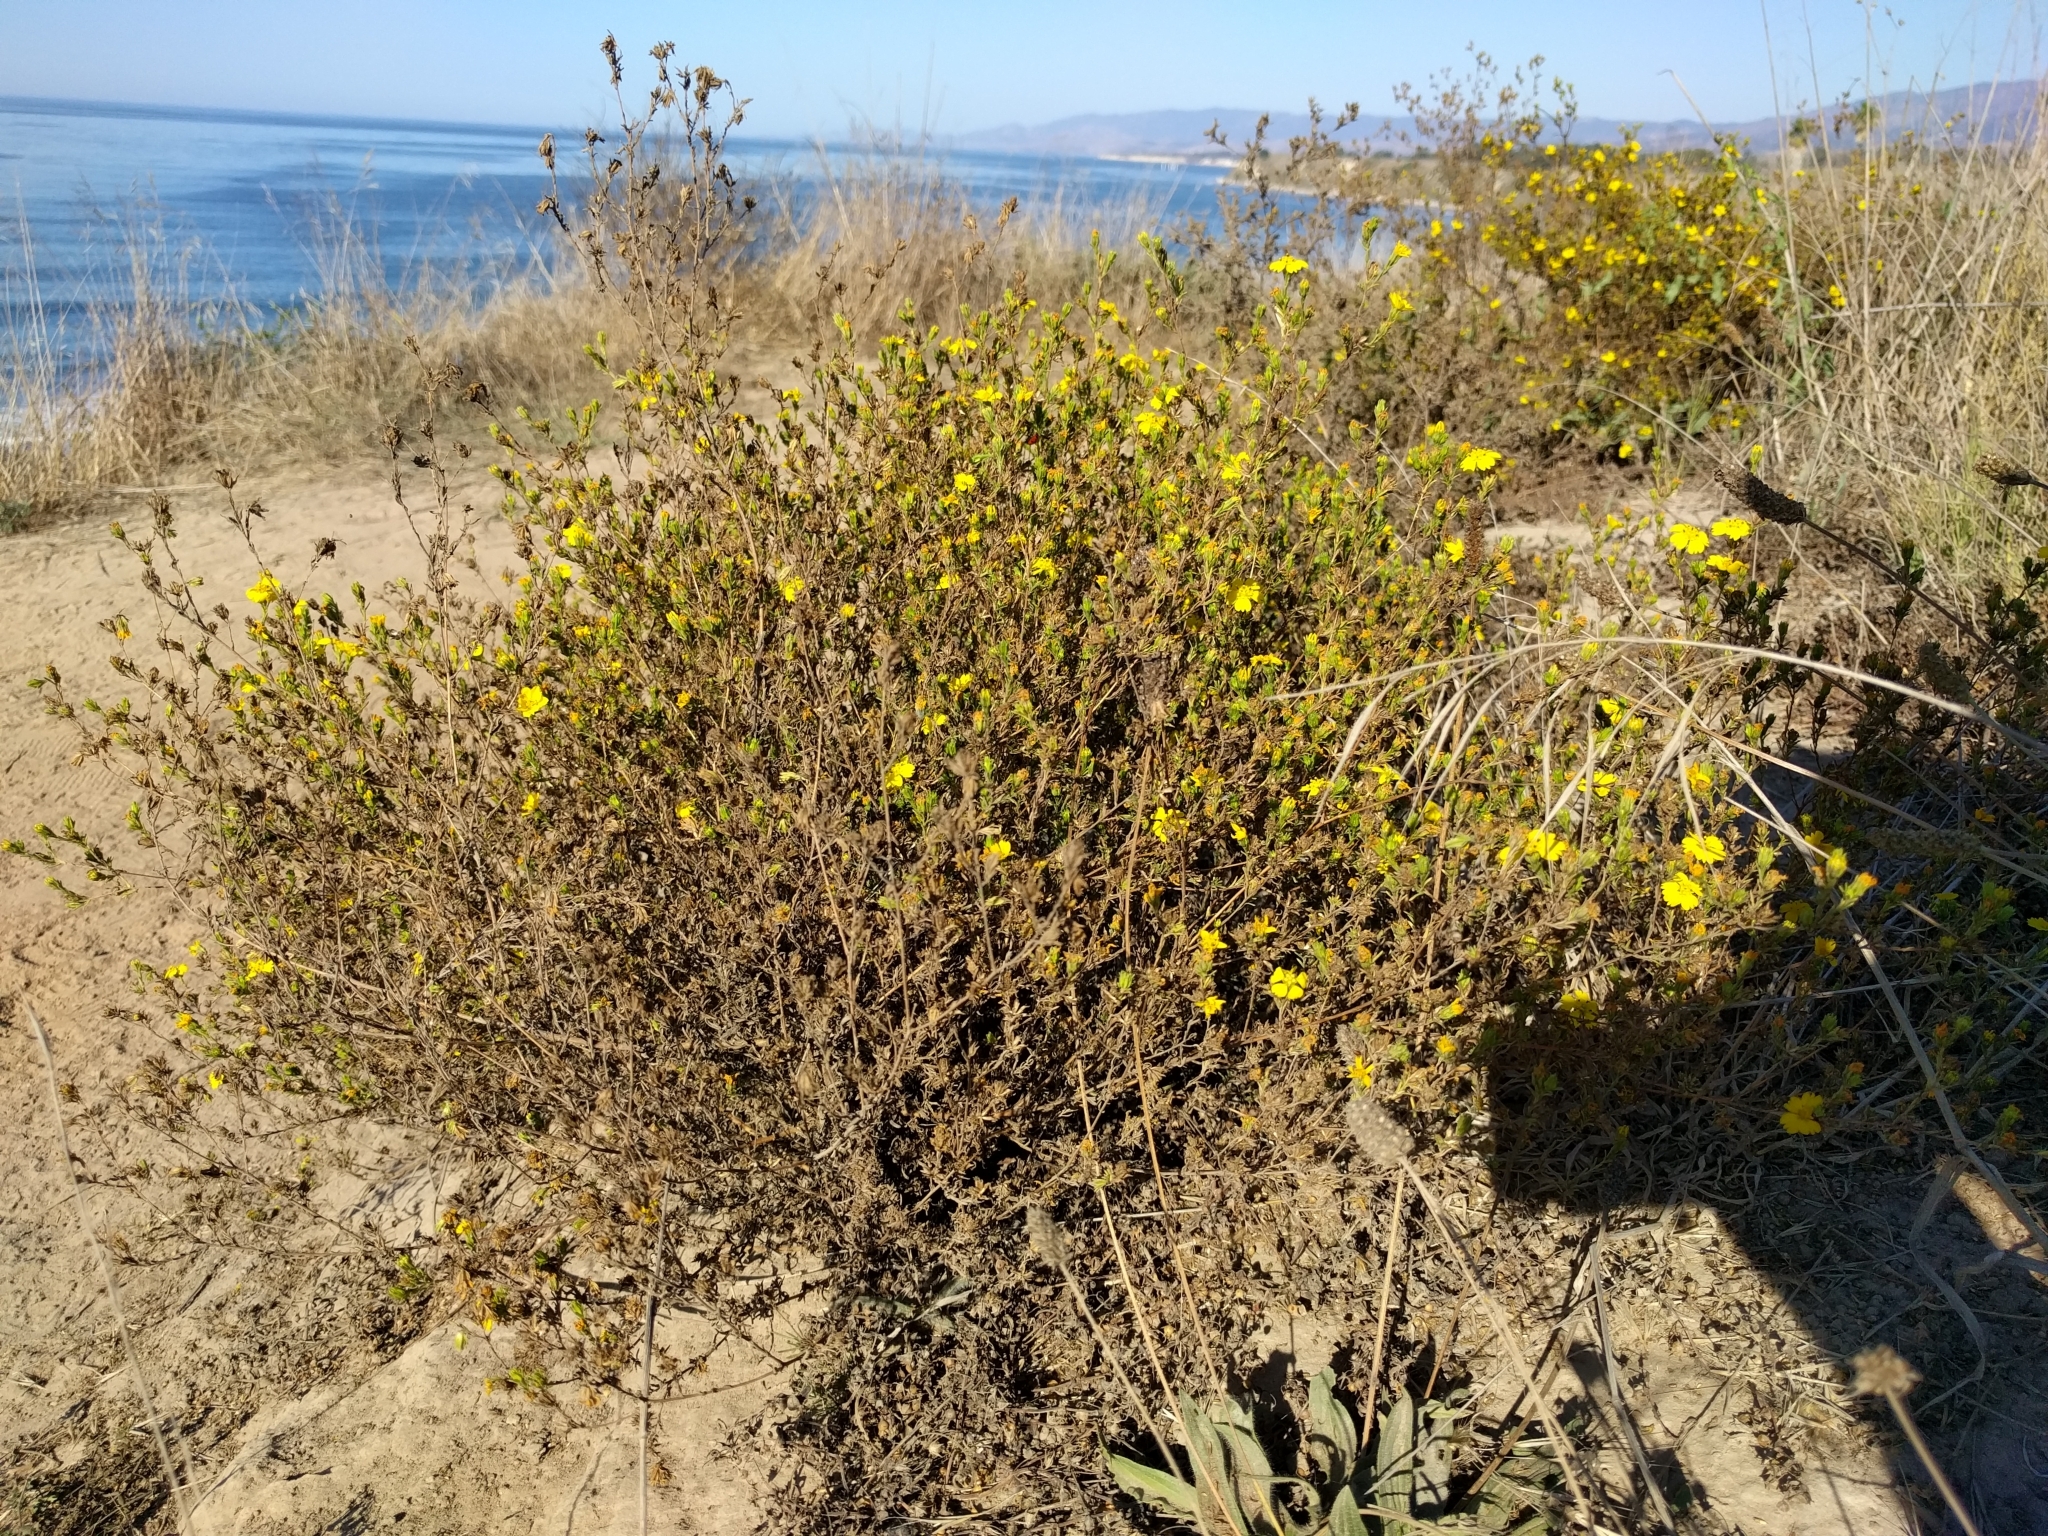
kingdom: Plantae
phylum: Tracheophyta
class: Magnoliopsida
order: Asterales
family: Asteraceae
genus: Deinandra
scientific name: Deinandra fasciculata
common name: Clustered tarweed
